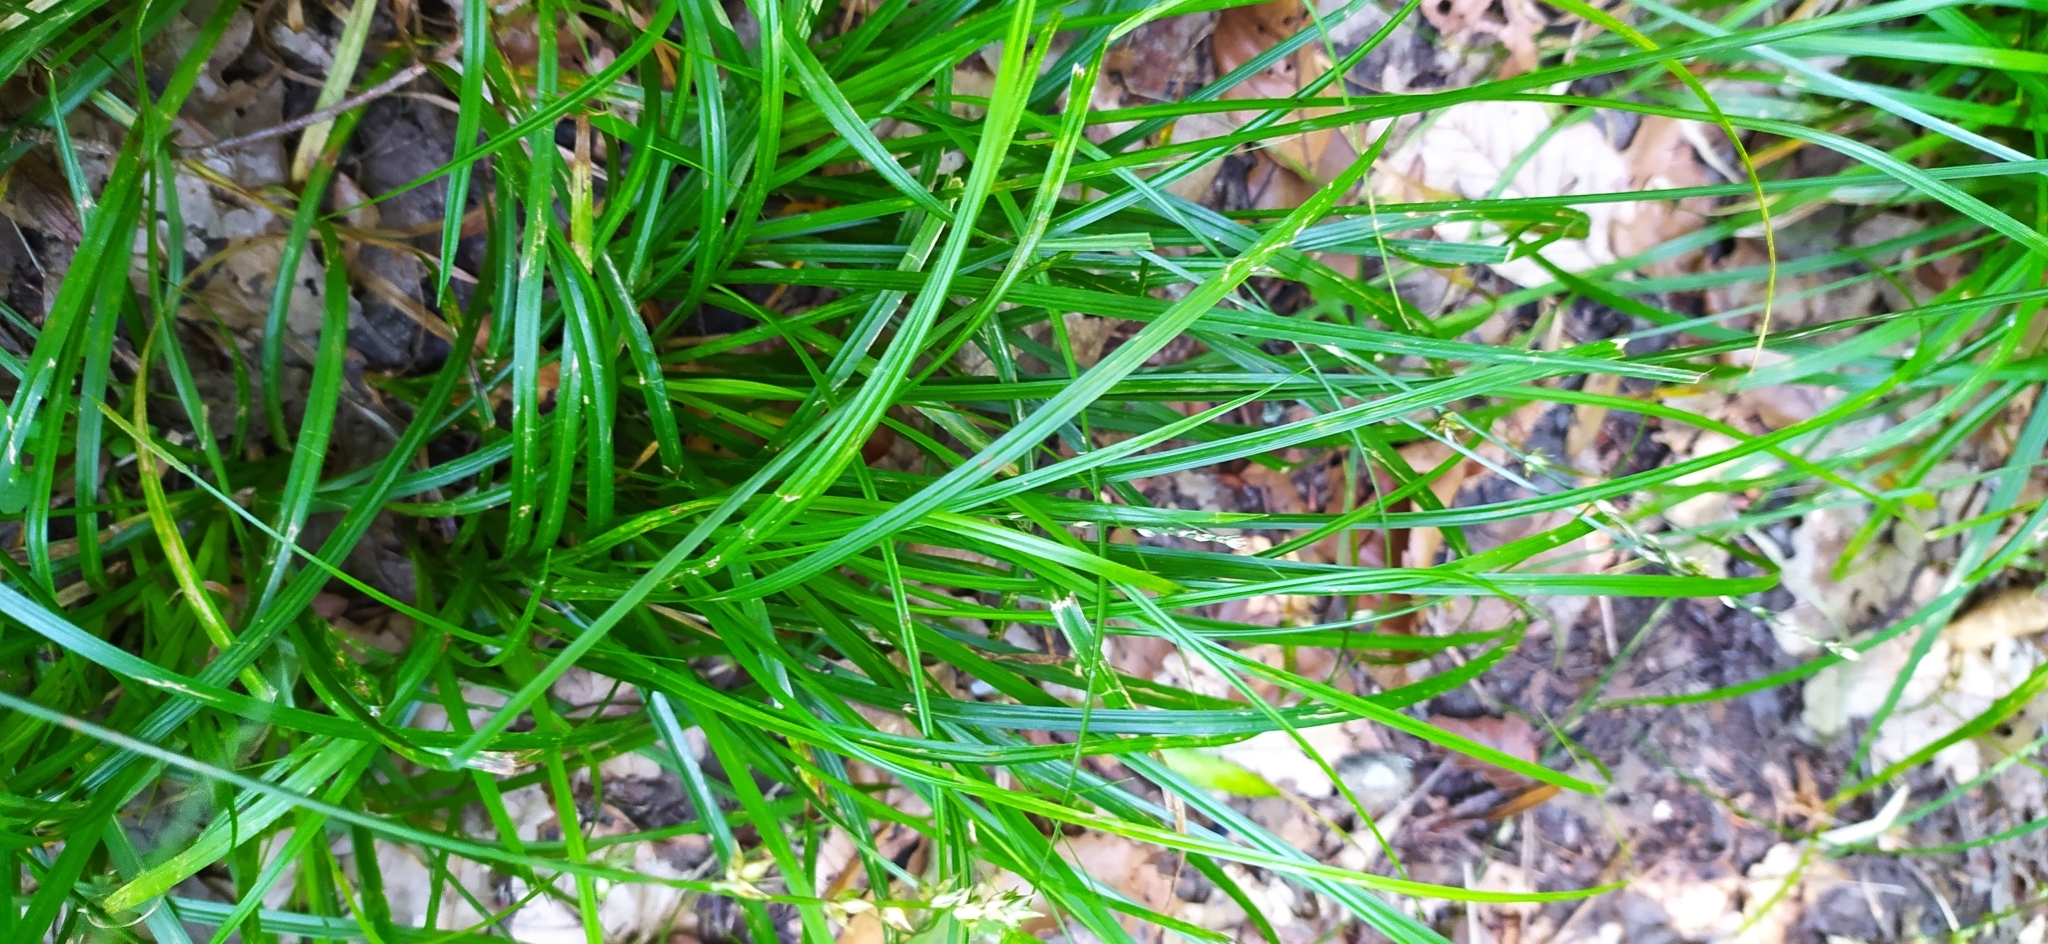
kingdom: Plantae
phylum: Tracheophyta
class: Liliopsida
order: Poales
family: Cyperaceae
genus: Carex
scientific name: Carex divulsa
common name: Grassland sedge
